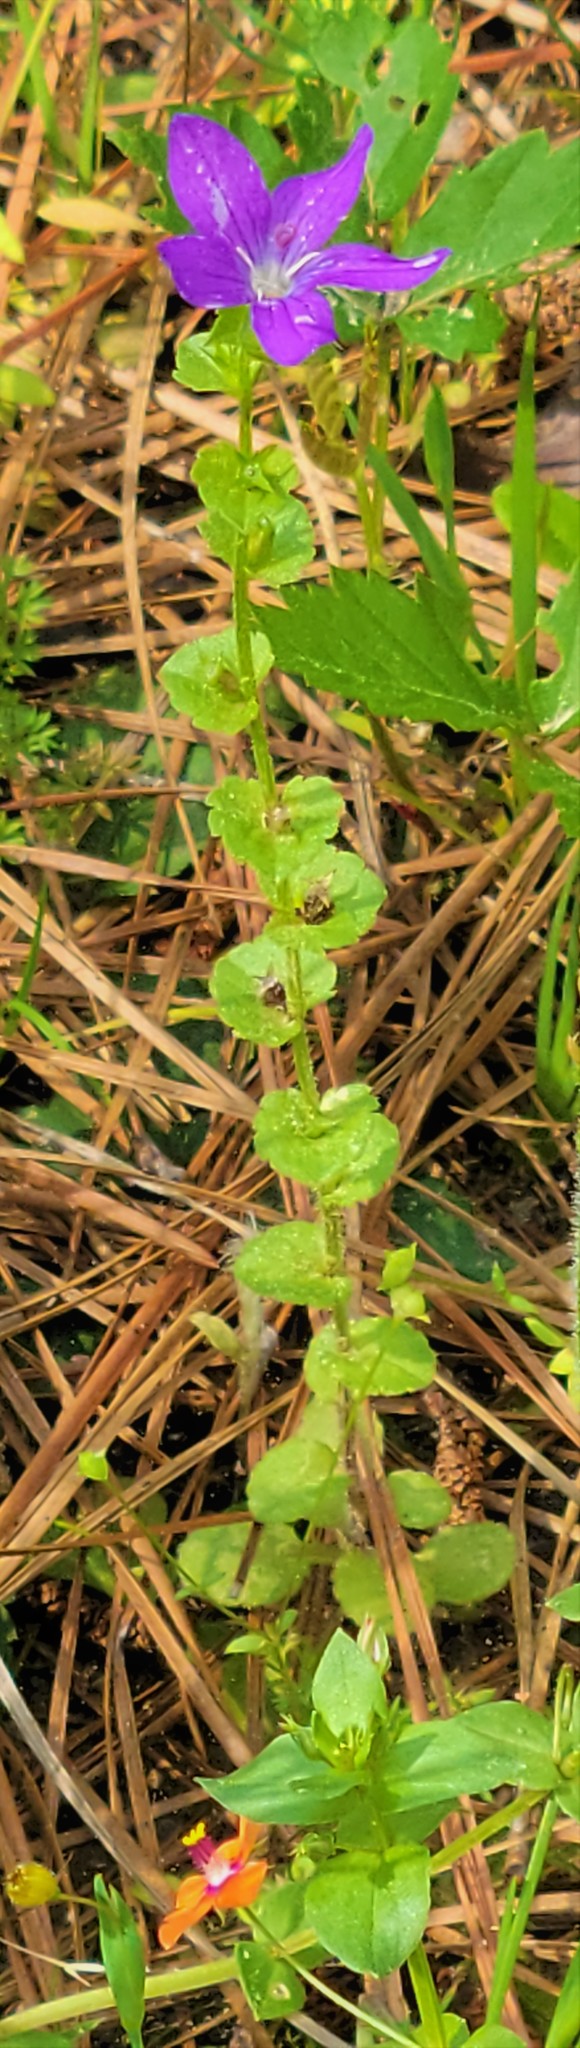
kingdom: Plantae
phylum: Tracheophyta
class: Magnoliopsida
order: Asterales
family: Campanulaceae
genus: Triodanis
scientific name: Triodanis perfoliata
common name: Clasping venus' looking-glass
